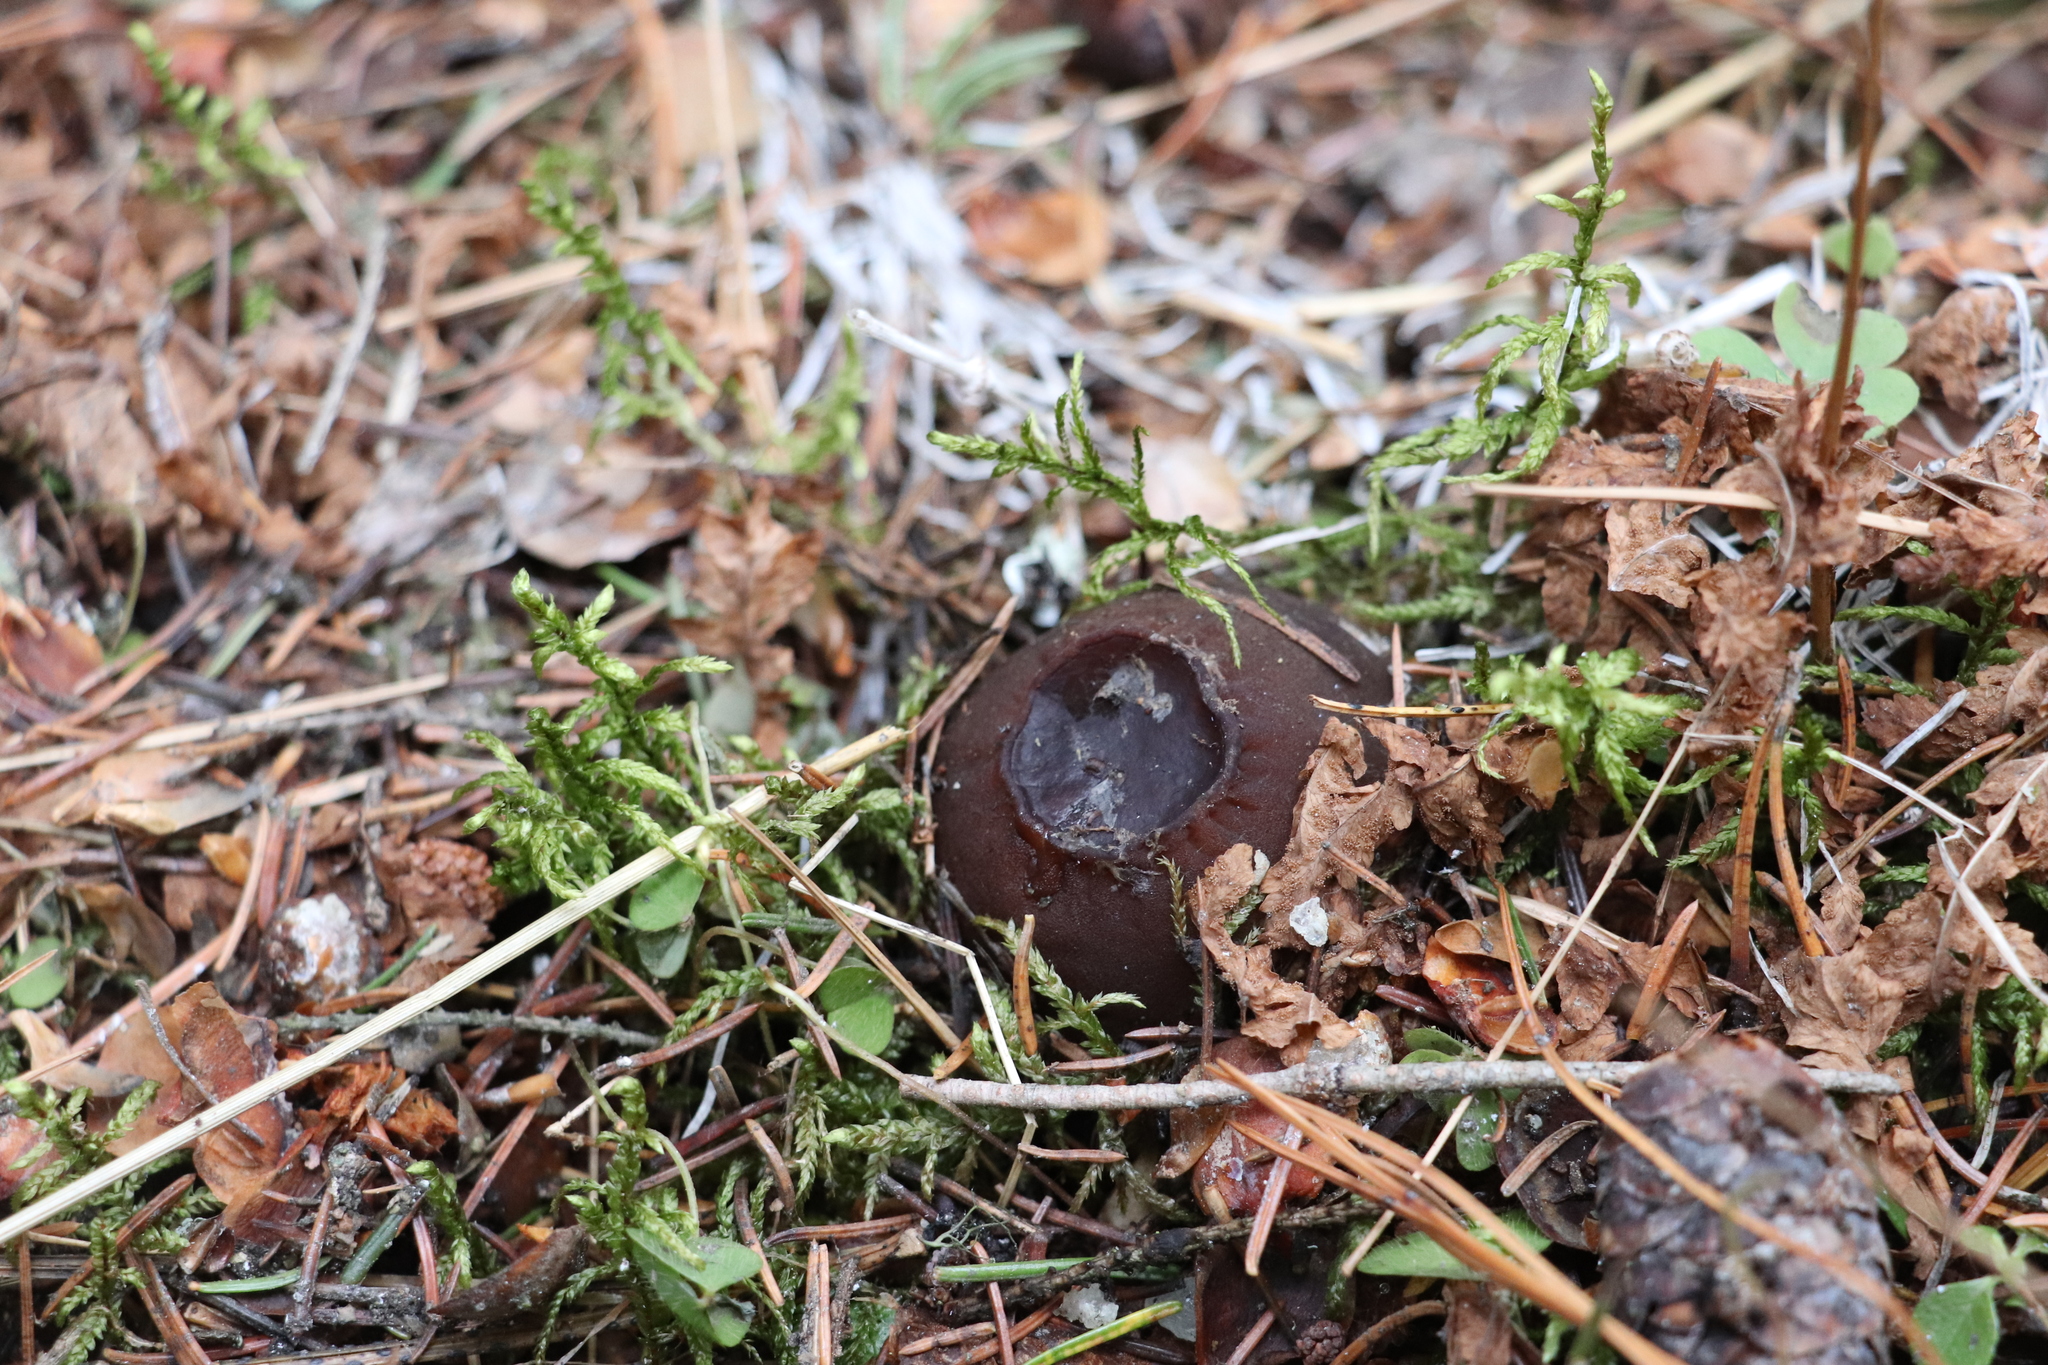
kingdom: Fungi
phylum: Ascomycota
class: Pezizomycetes
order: Pezizales
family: Sarcosomataceae
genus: Sarcosoma
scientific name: Sarcosoma globosum
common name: Charred-pancake cup
